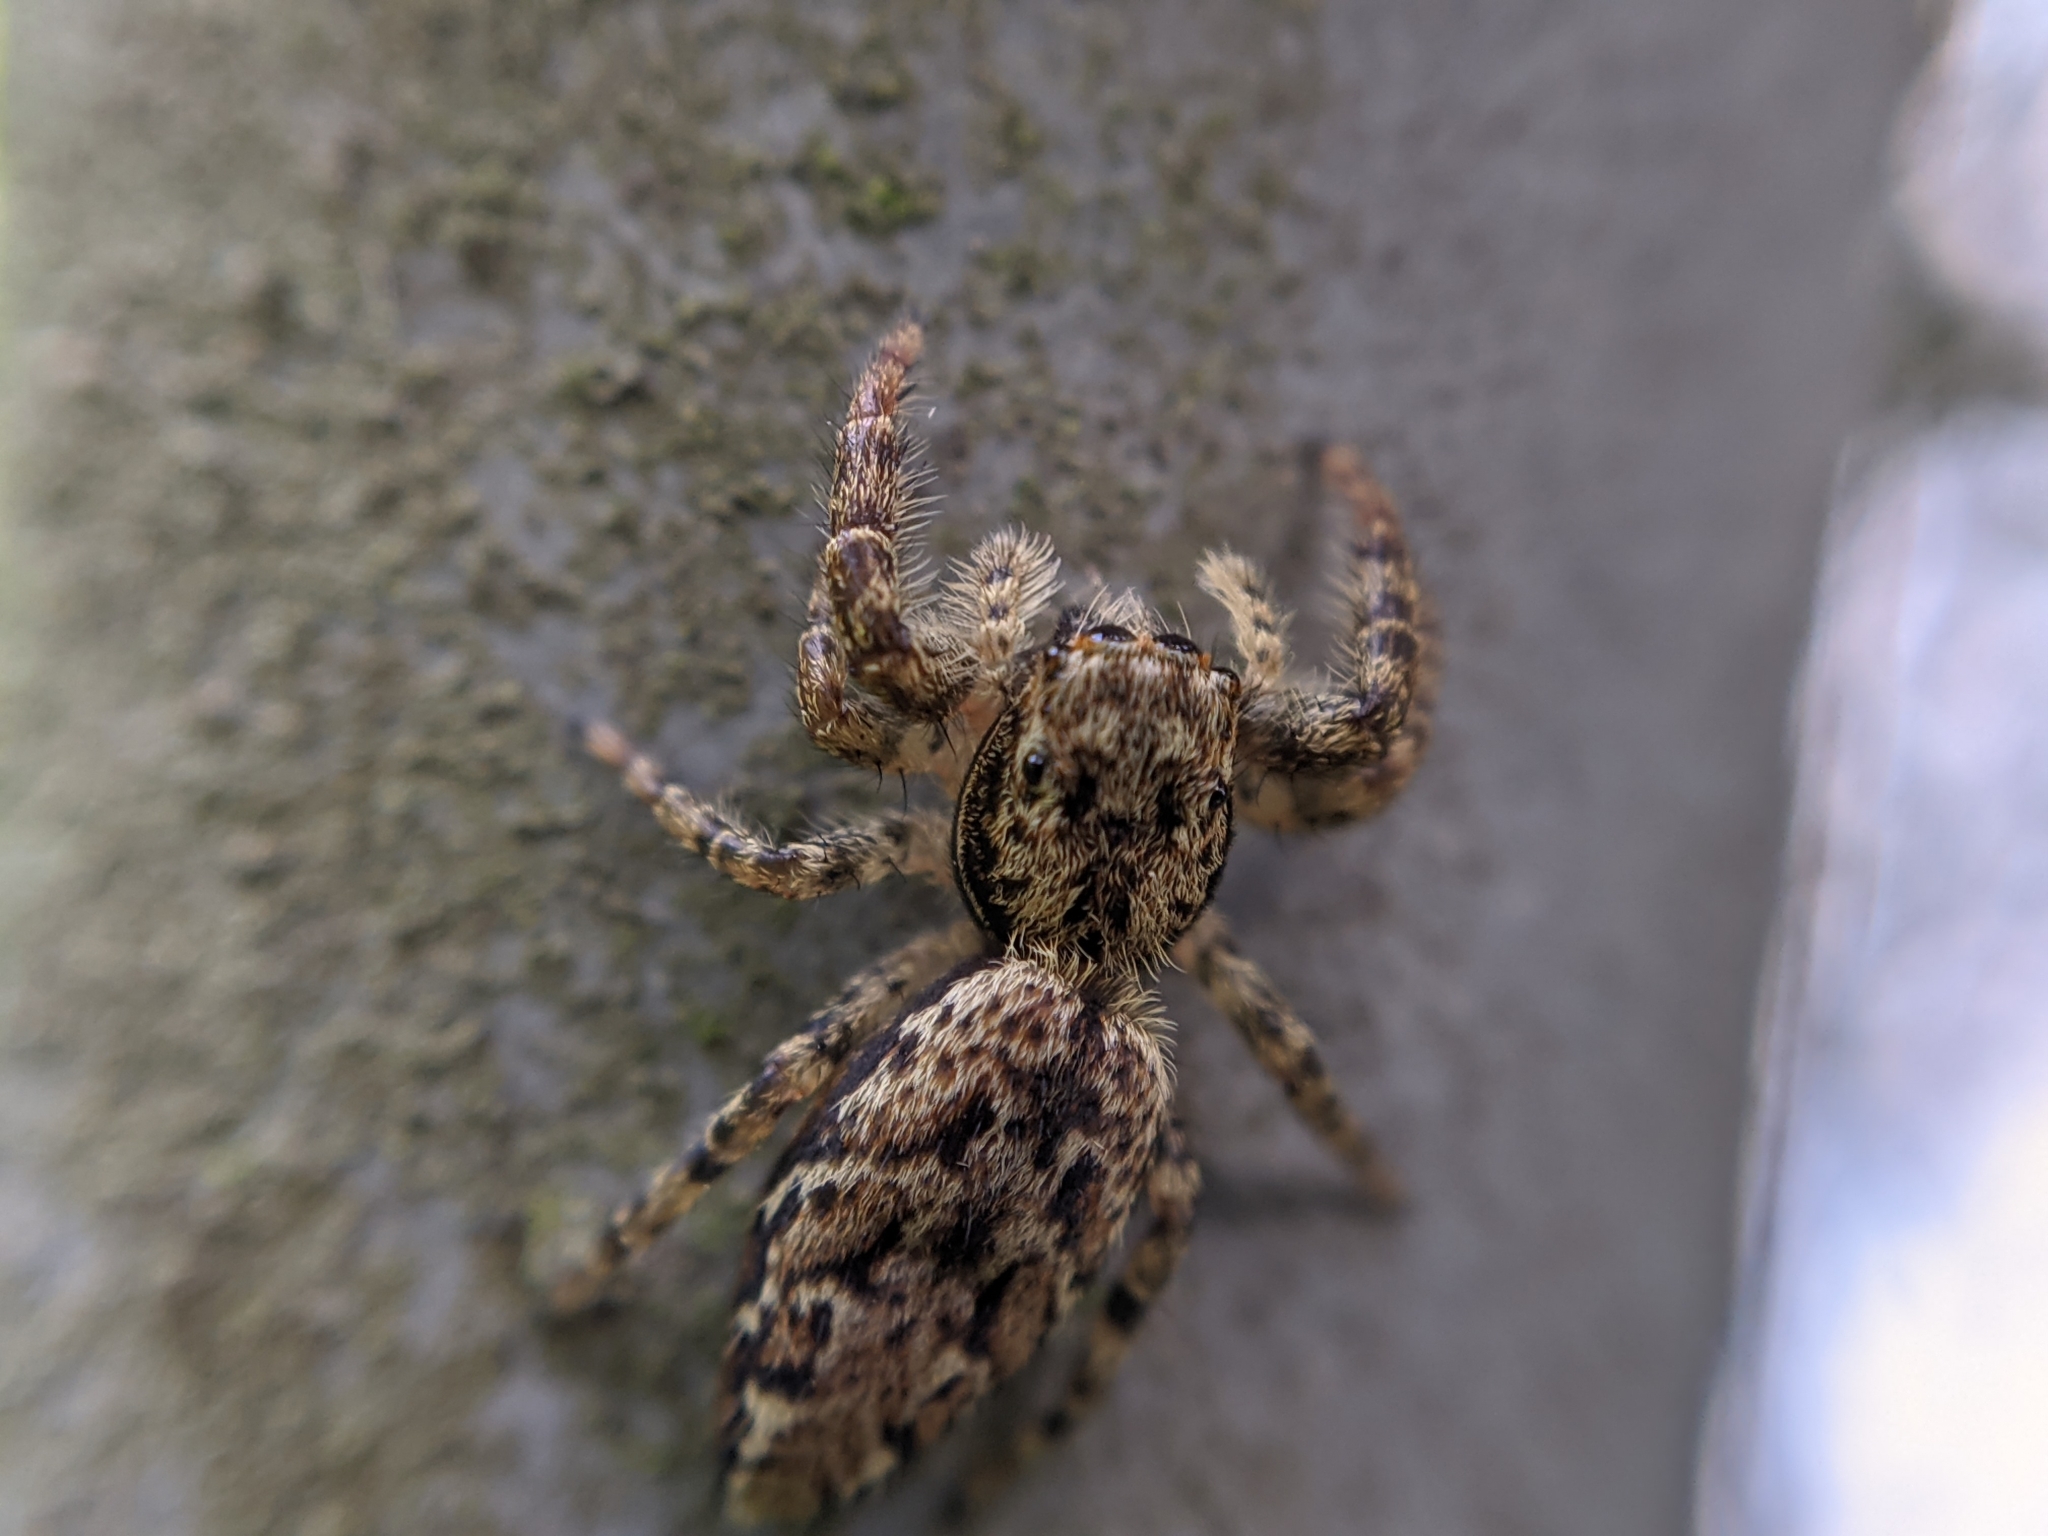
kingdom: Animalia
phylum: Arthropoda
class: Arachnida
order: Araneae
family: Salticidae
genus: Marpissa
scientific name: Marpissa muscosa
